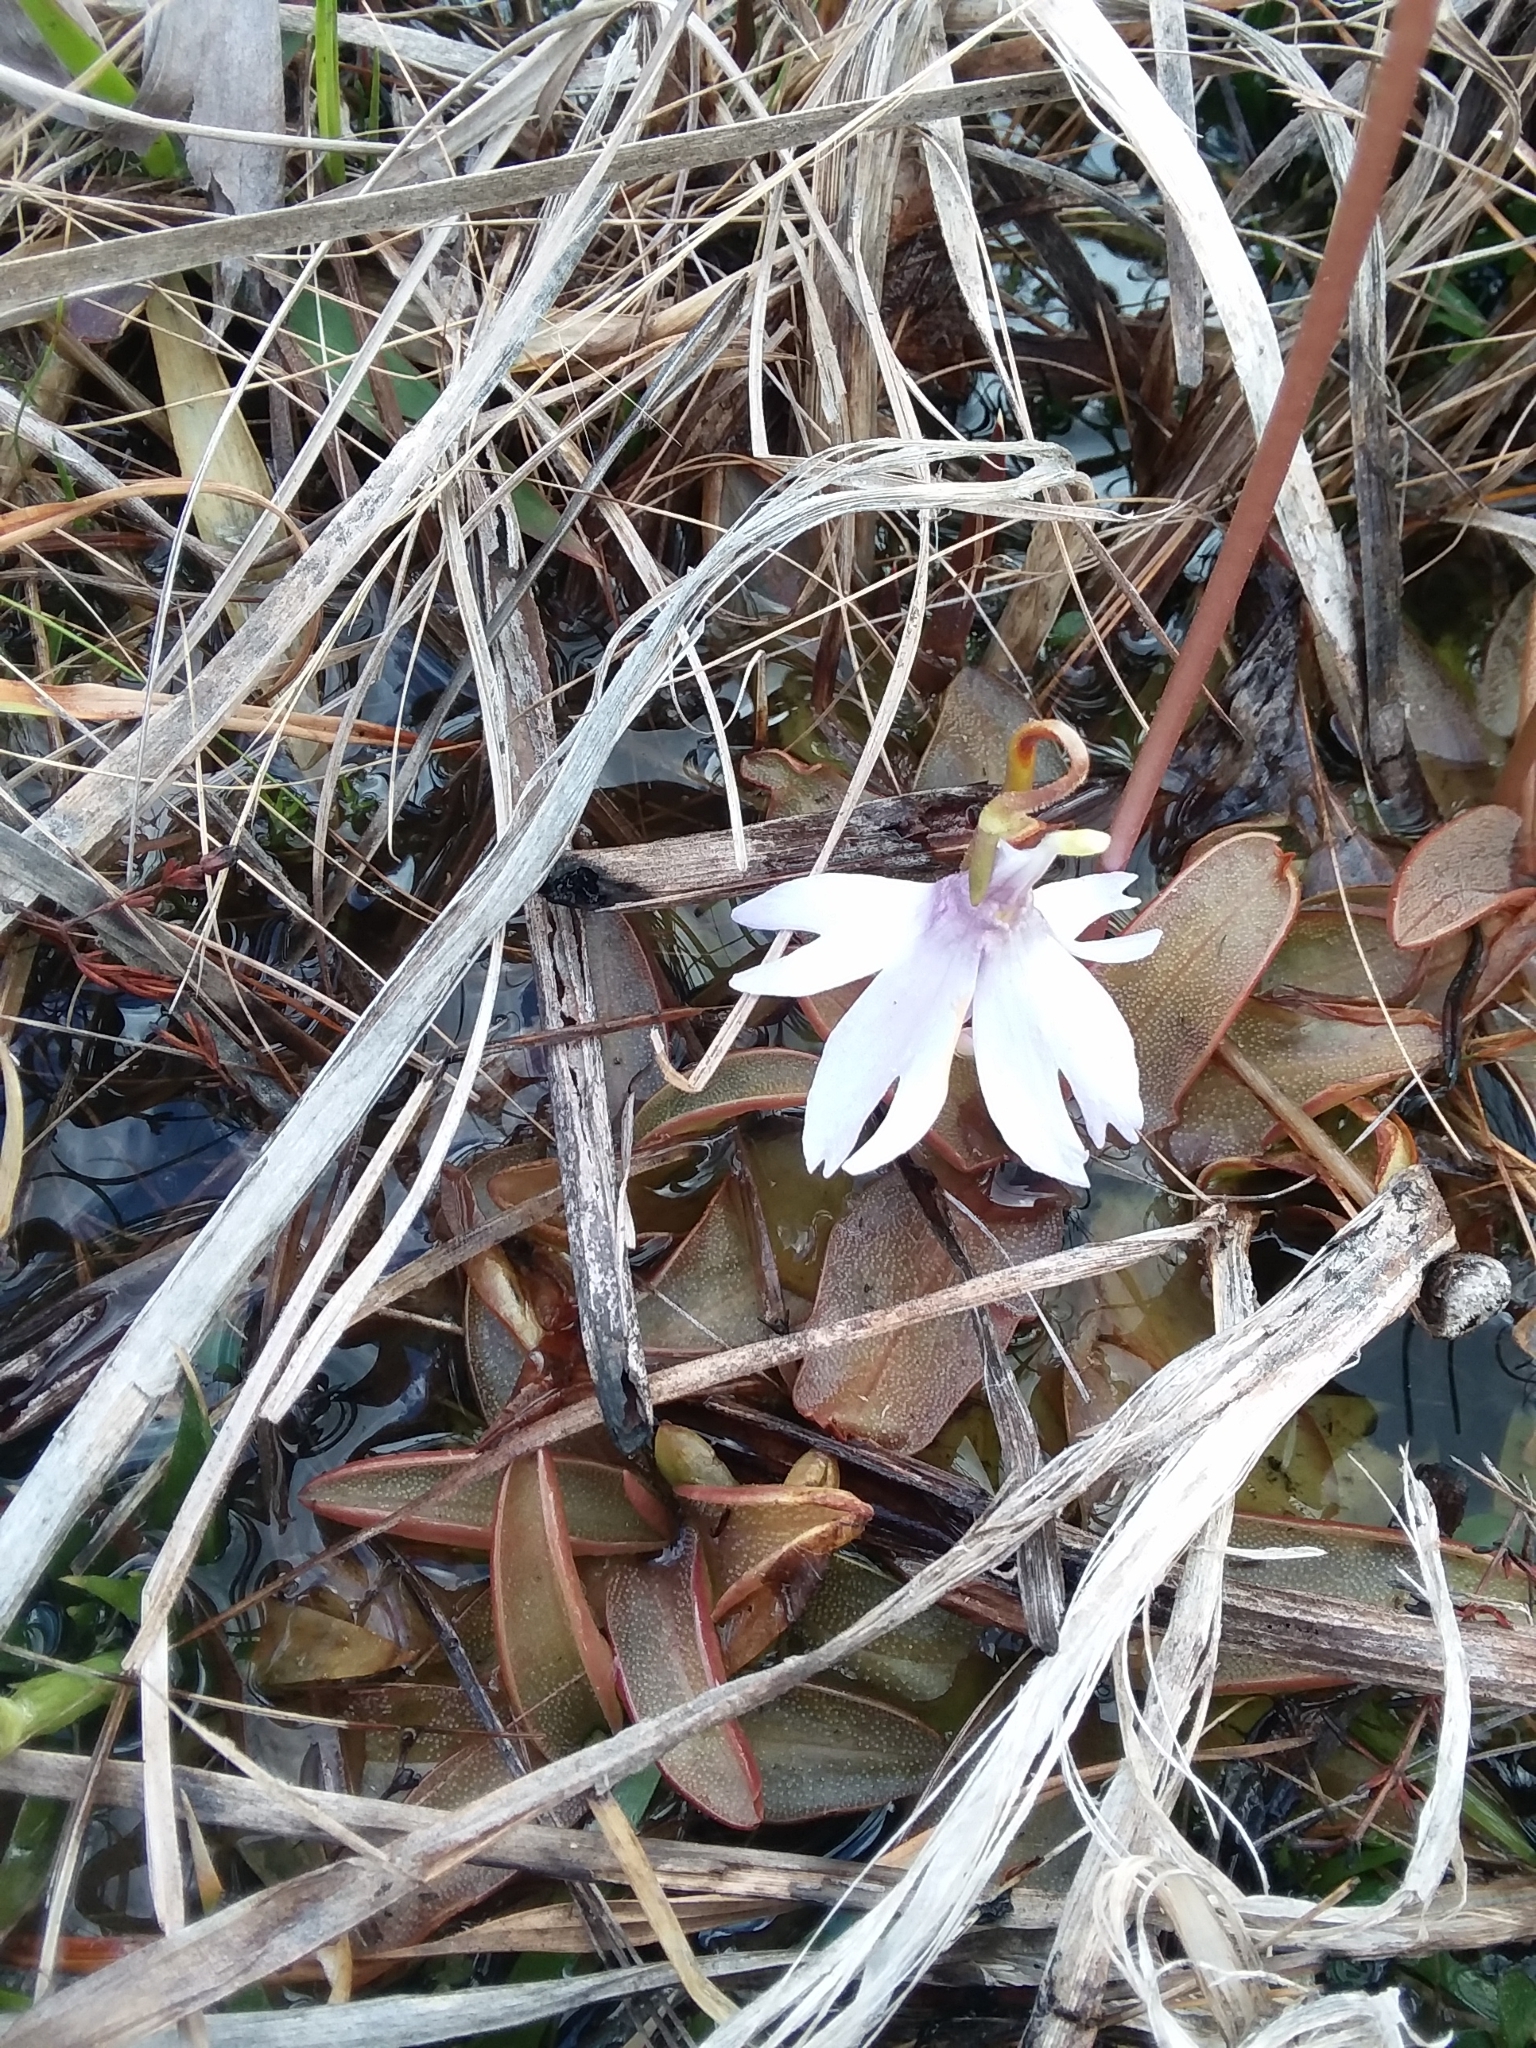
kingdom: Plantae
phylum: Tracheophyta
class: Magnoliopsida
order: Lamiales
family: Lentibulariaceae
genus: Pinguicula
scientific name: Pinguicula planifolia
